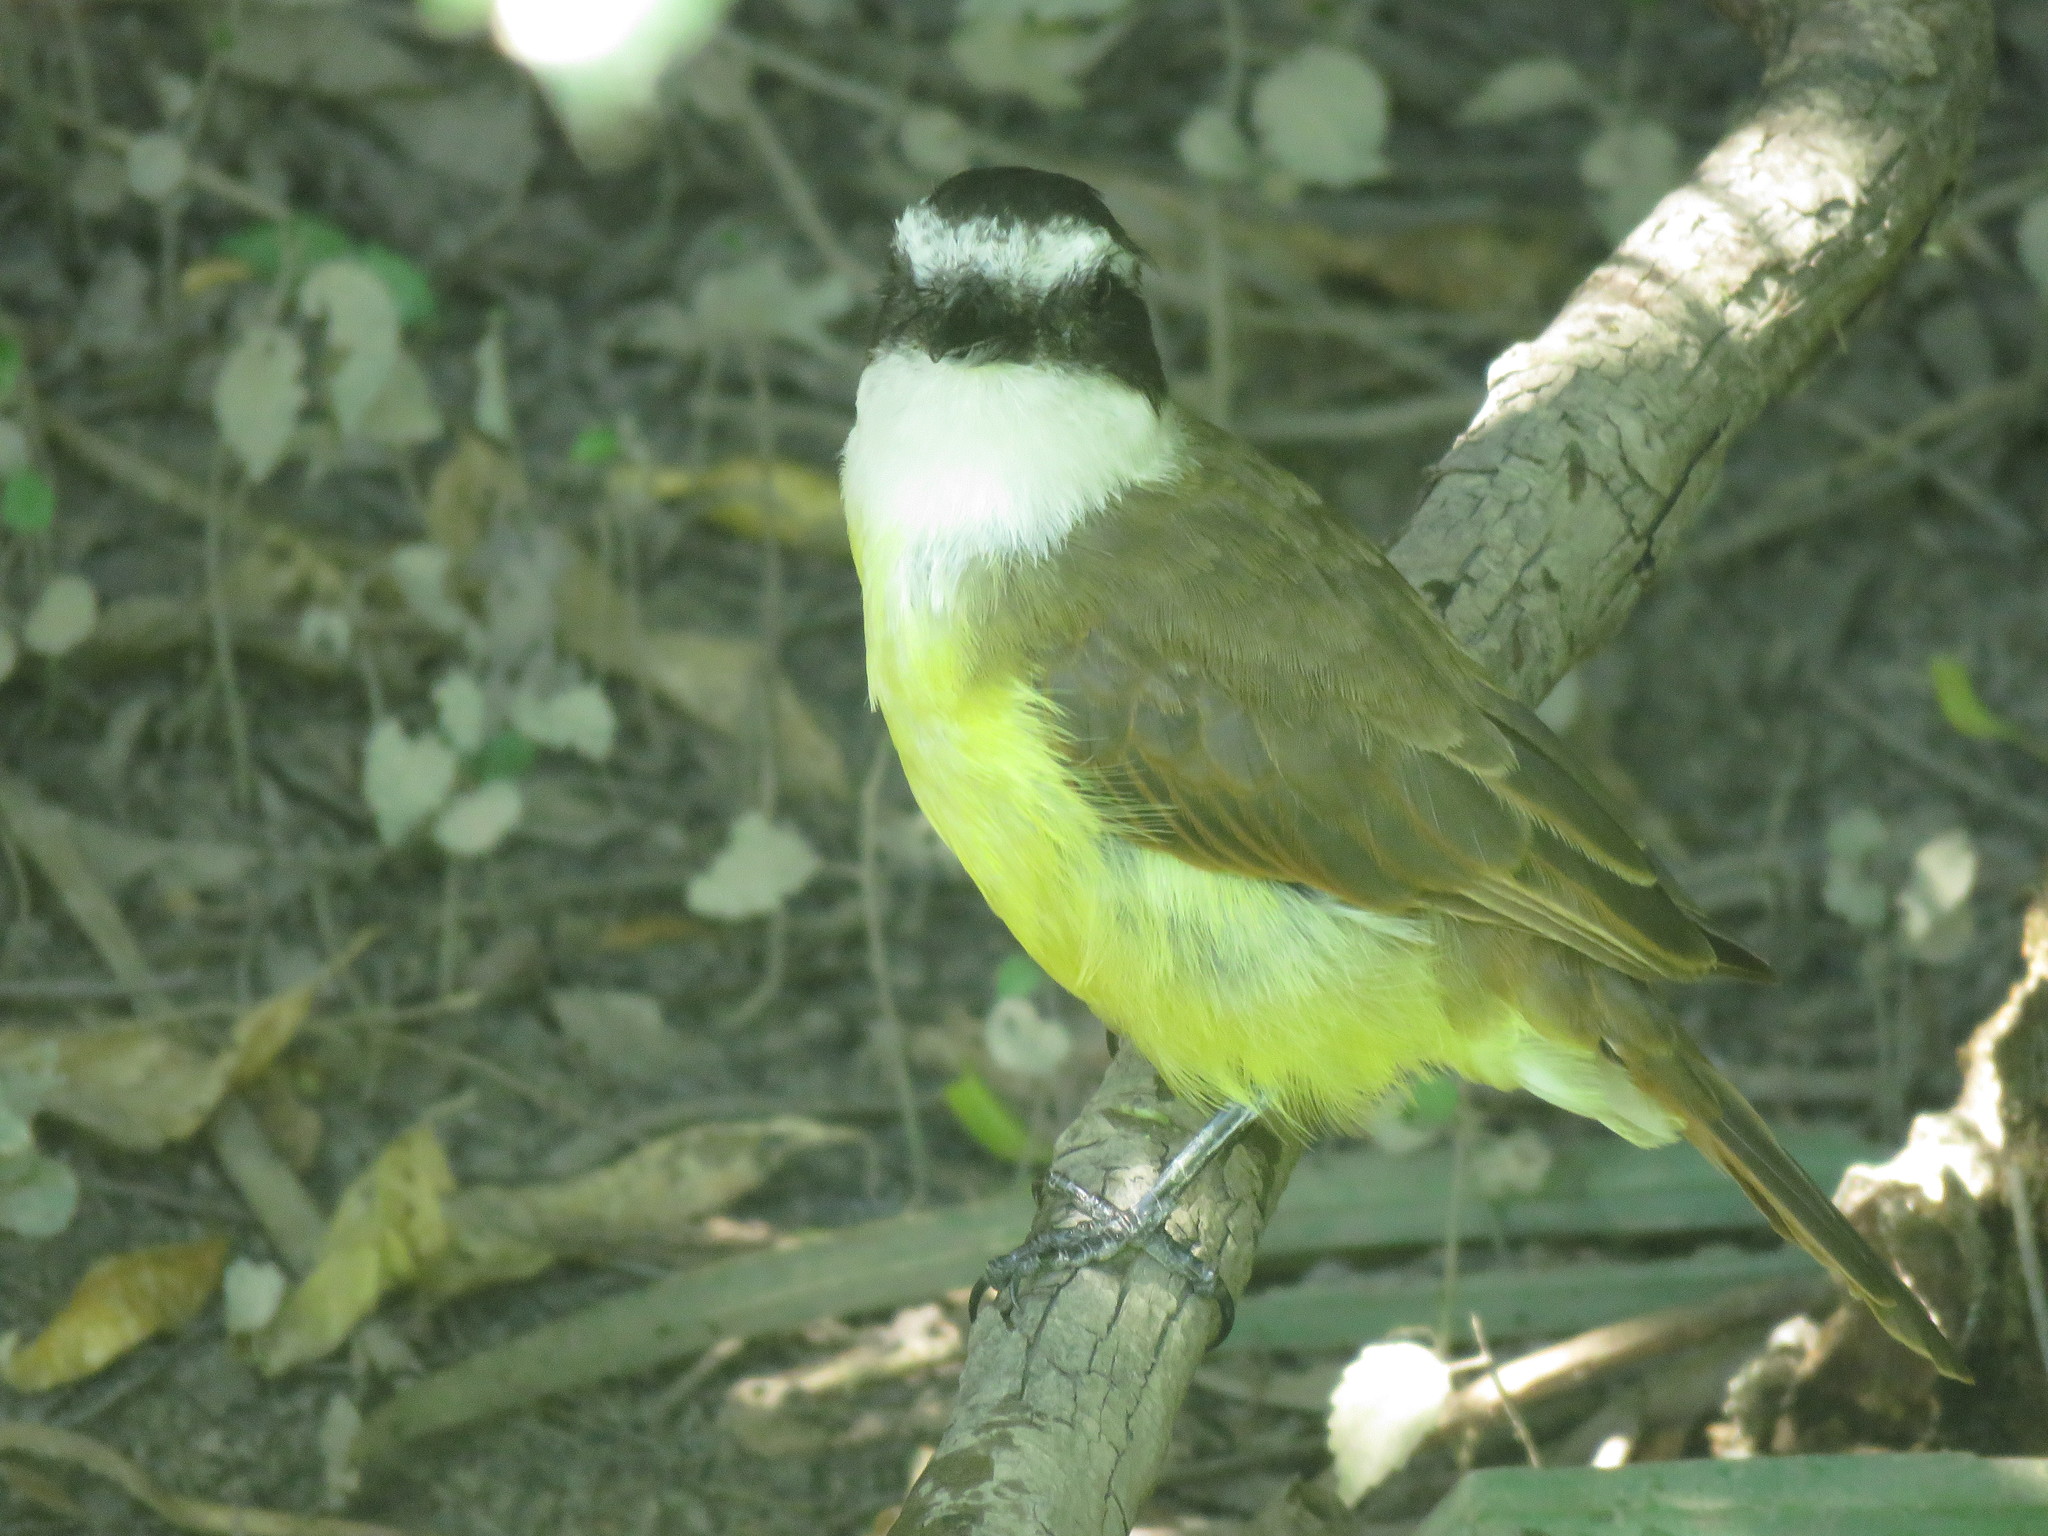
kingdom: Animalia
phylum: Chordata
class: Aves
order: Passeriformes
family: Tyrannidae
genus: Pitangus
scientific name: Pitangus sulphuratus
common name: Great kiskadee
